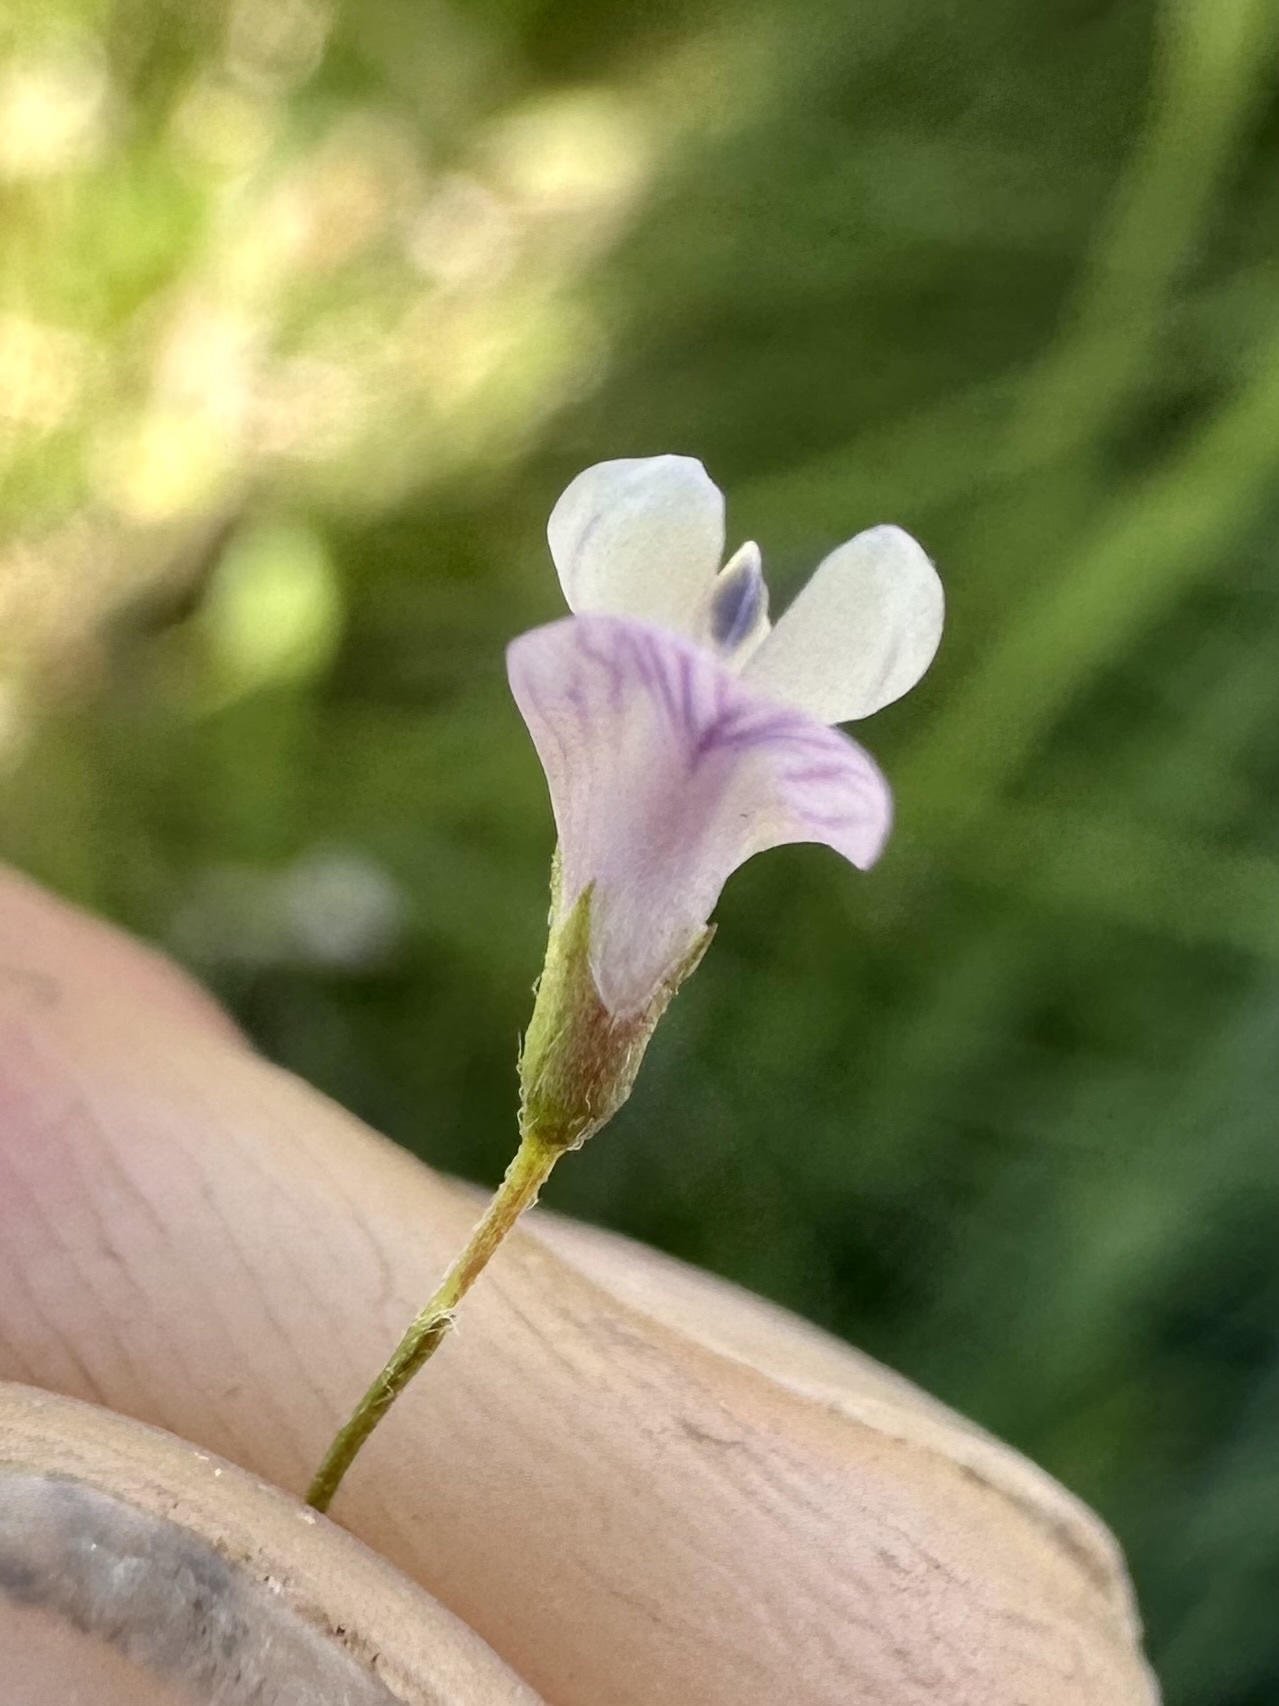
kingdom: Plantae
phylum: Tracheophyta
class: Magnoliopsida
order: Fabales
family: Fabaceae
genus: Vicia
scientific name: Vicia tetrasperma
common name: Smooth tare
